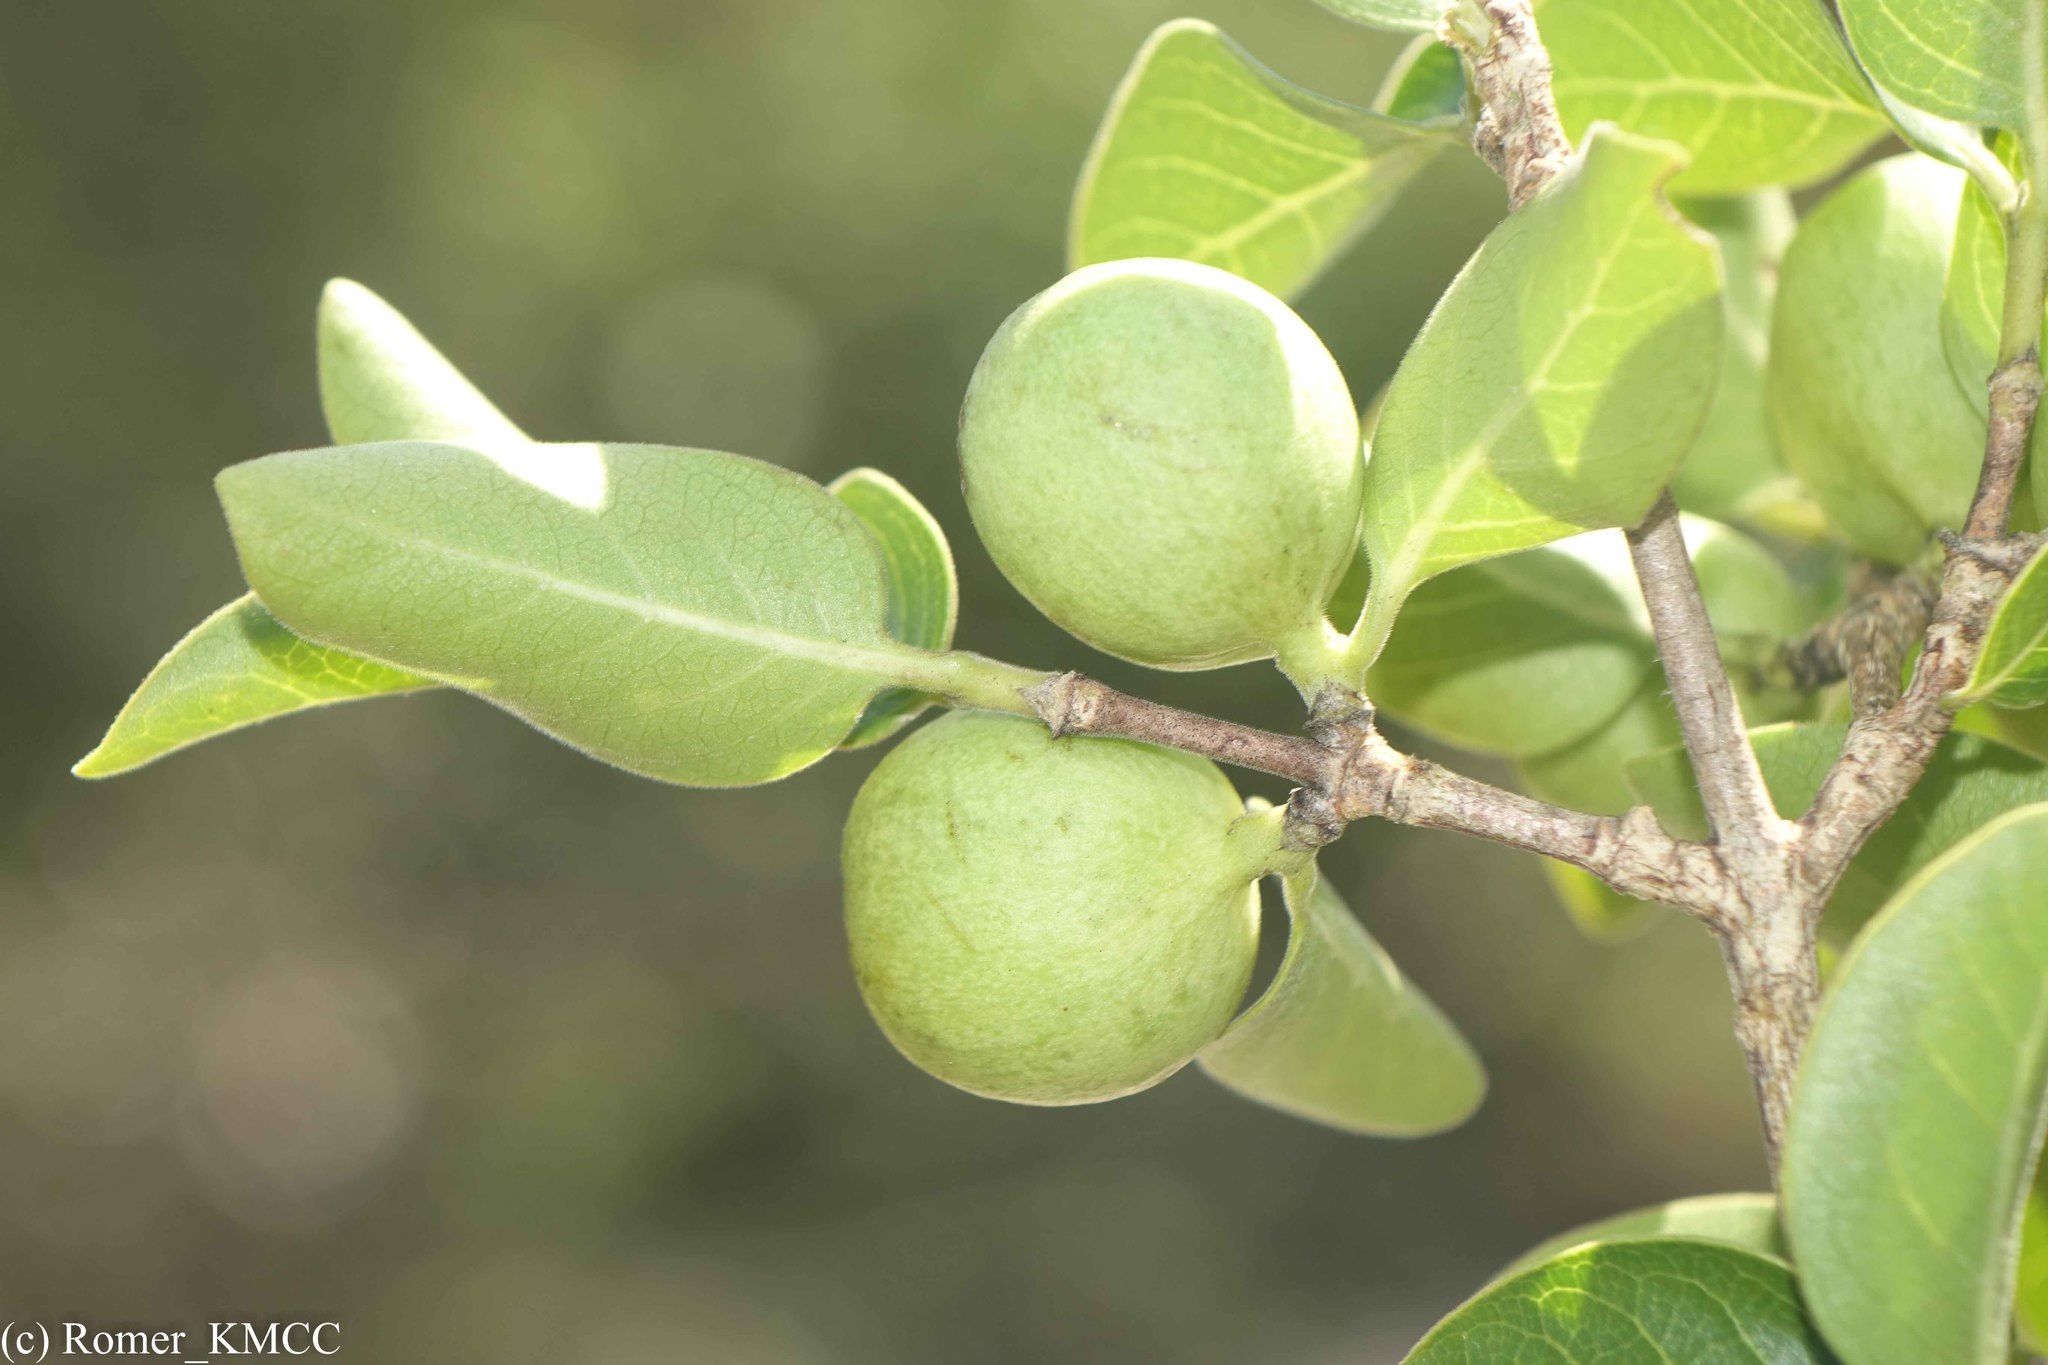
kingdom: Plantae
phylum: Tracheophyta
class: Magnoliopsida
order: Gentianales
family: Rubiaceae
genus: Coffea
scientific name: Coffea humbertii
